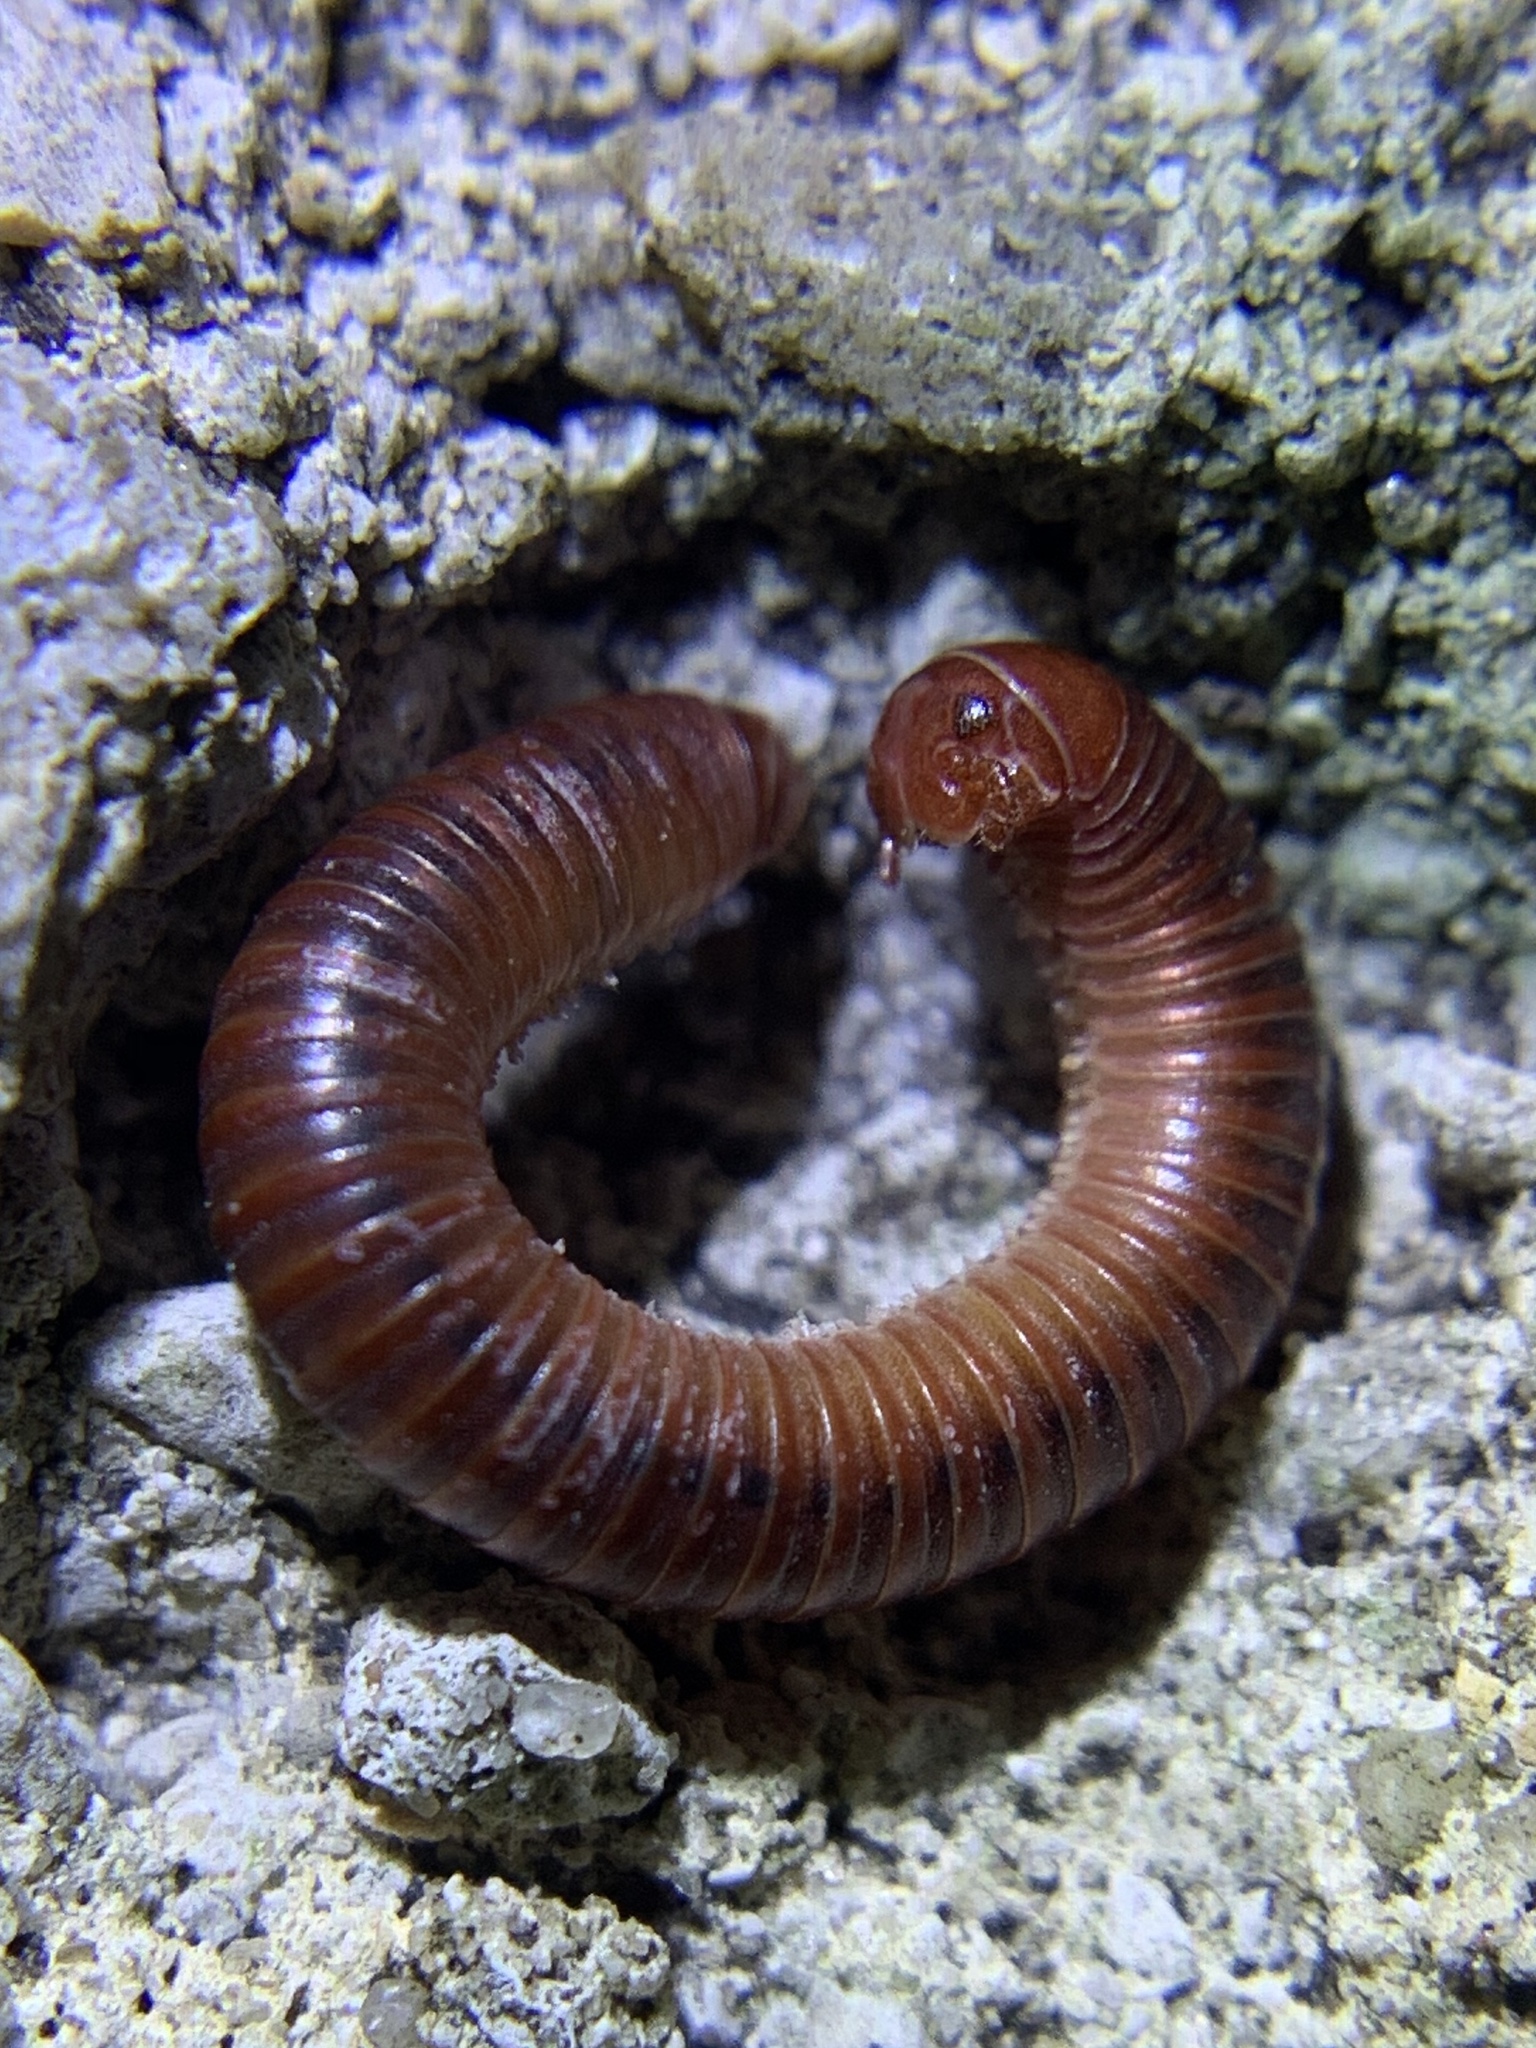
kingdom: Animalia
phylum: Arthropoda
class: Diplopoda
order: Spirobolida
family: Pachybolidae
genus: Trigoniulus
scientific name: Trigoniulus corallinus
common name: Millipede
